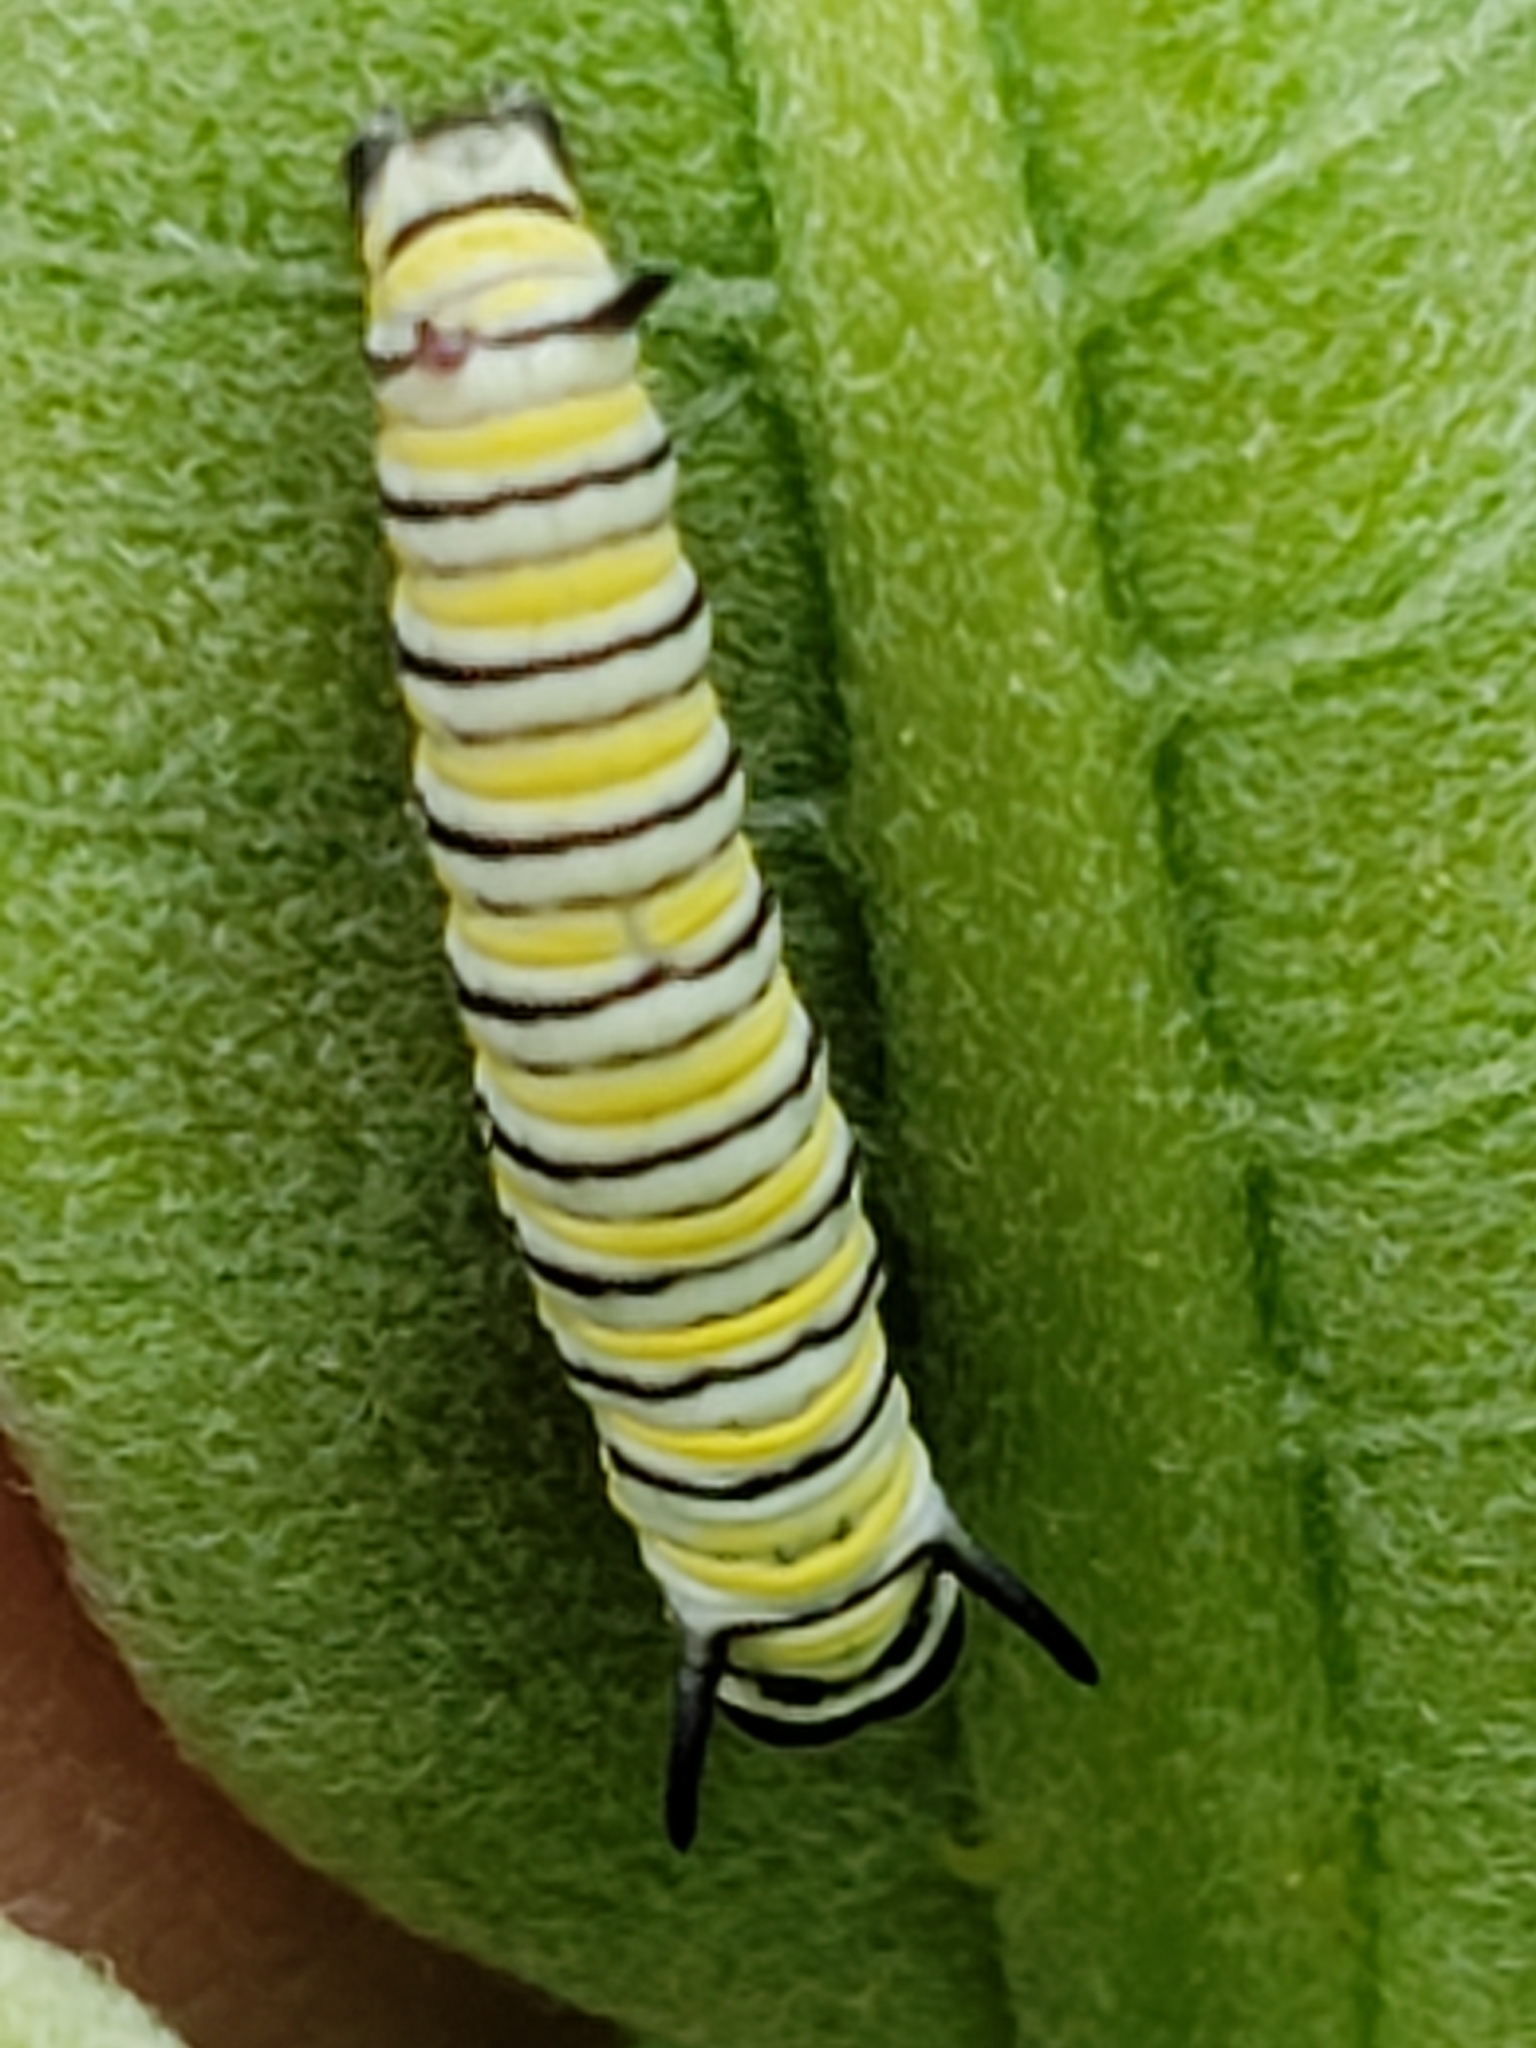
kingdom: Animalia
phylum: Arthropoda
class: Insecta
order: Lepidoptera
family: Nymphalidae
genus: Danaus
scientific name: Danaus plexippus
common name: Monarch
